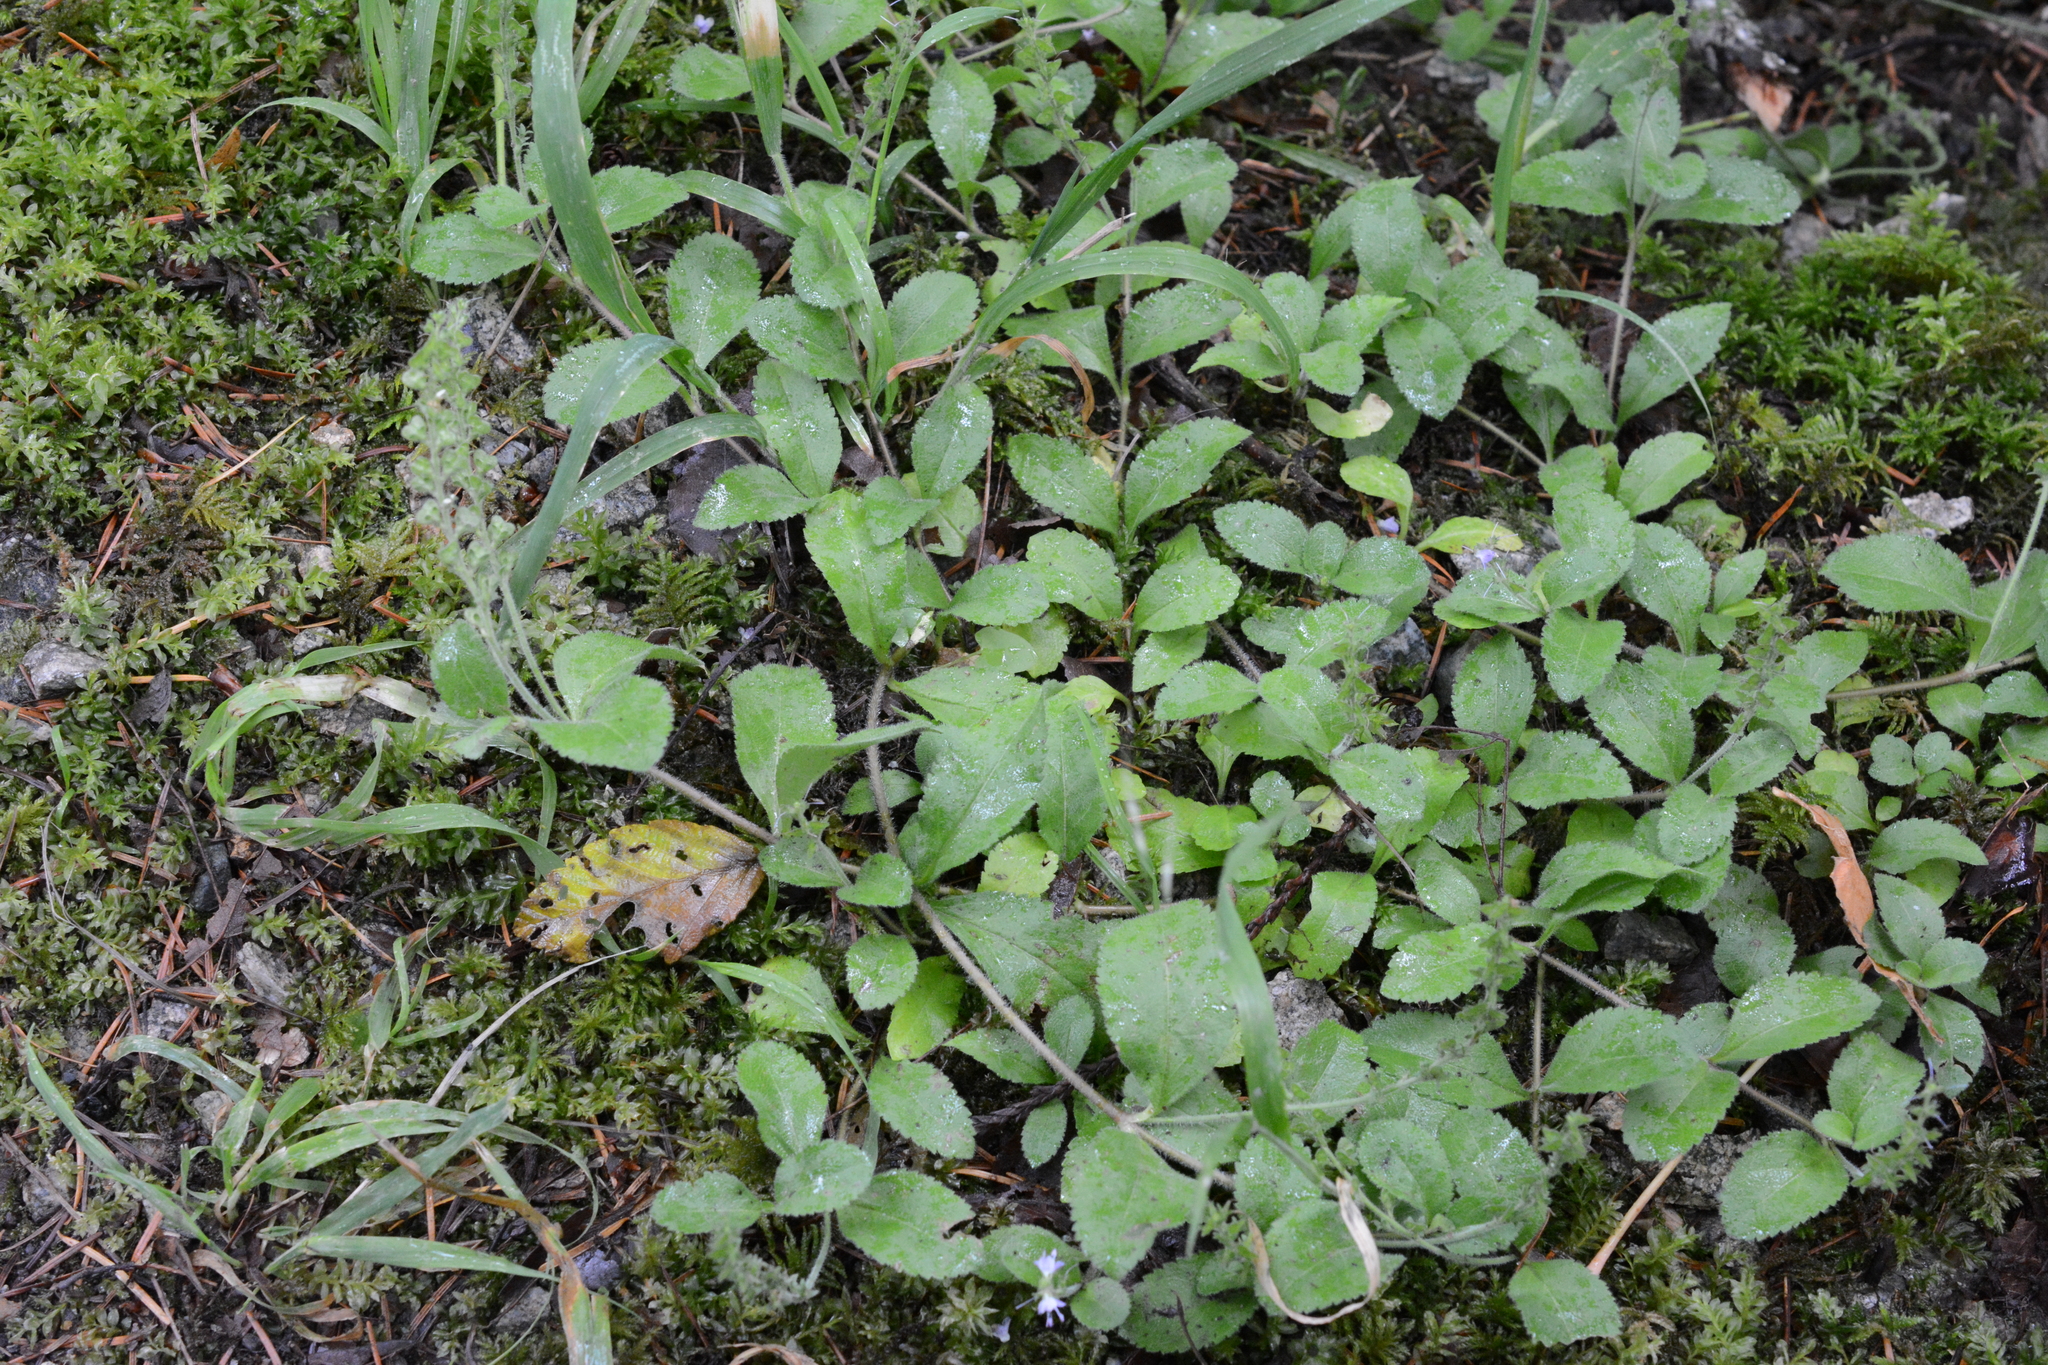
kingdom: Plantae
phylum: Tracheophyta
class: Magnoliopsida
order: Lamiales
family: Plantaginaceae
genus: Veronica
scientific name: Veronica officinalis
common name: Common speedwell
